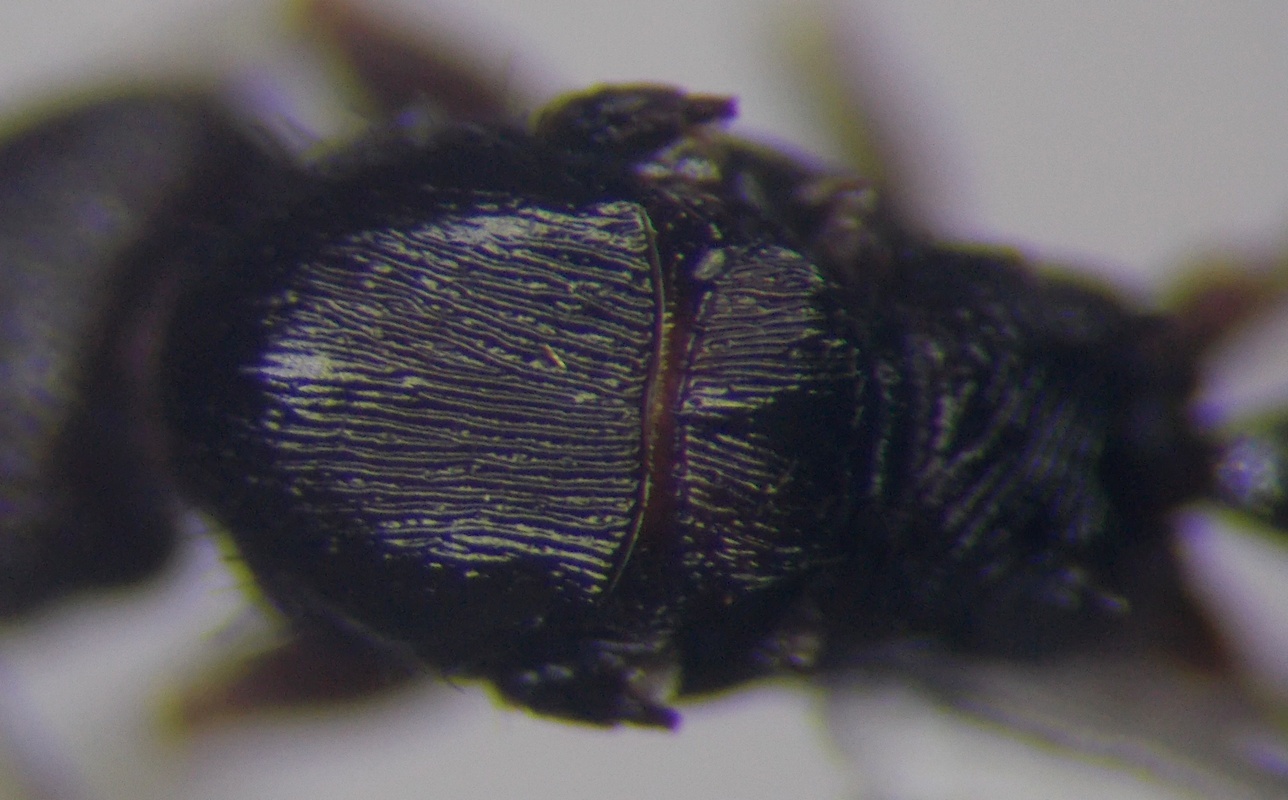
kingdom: Animalia
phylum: Arthropoda
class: Insecta
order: Hymenoptera
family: Formicidae
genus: Tetramorium
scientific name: Tetramorium chefketi
